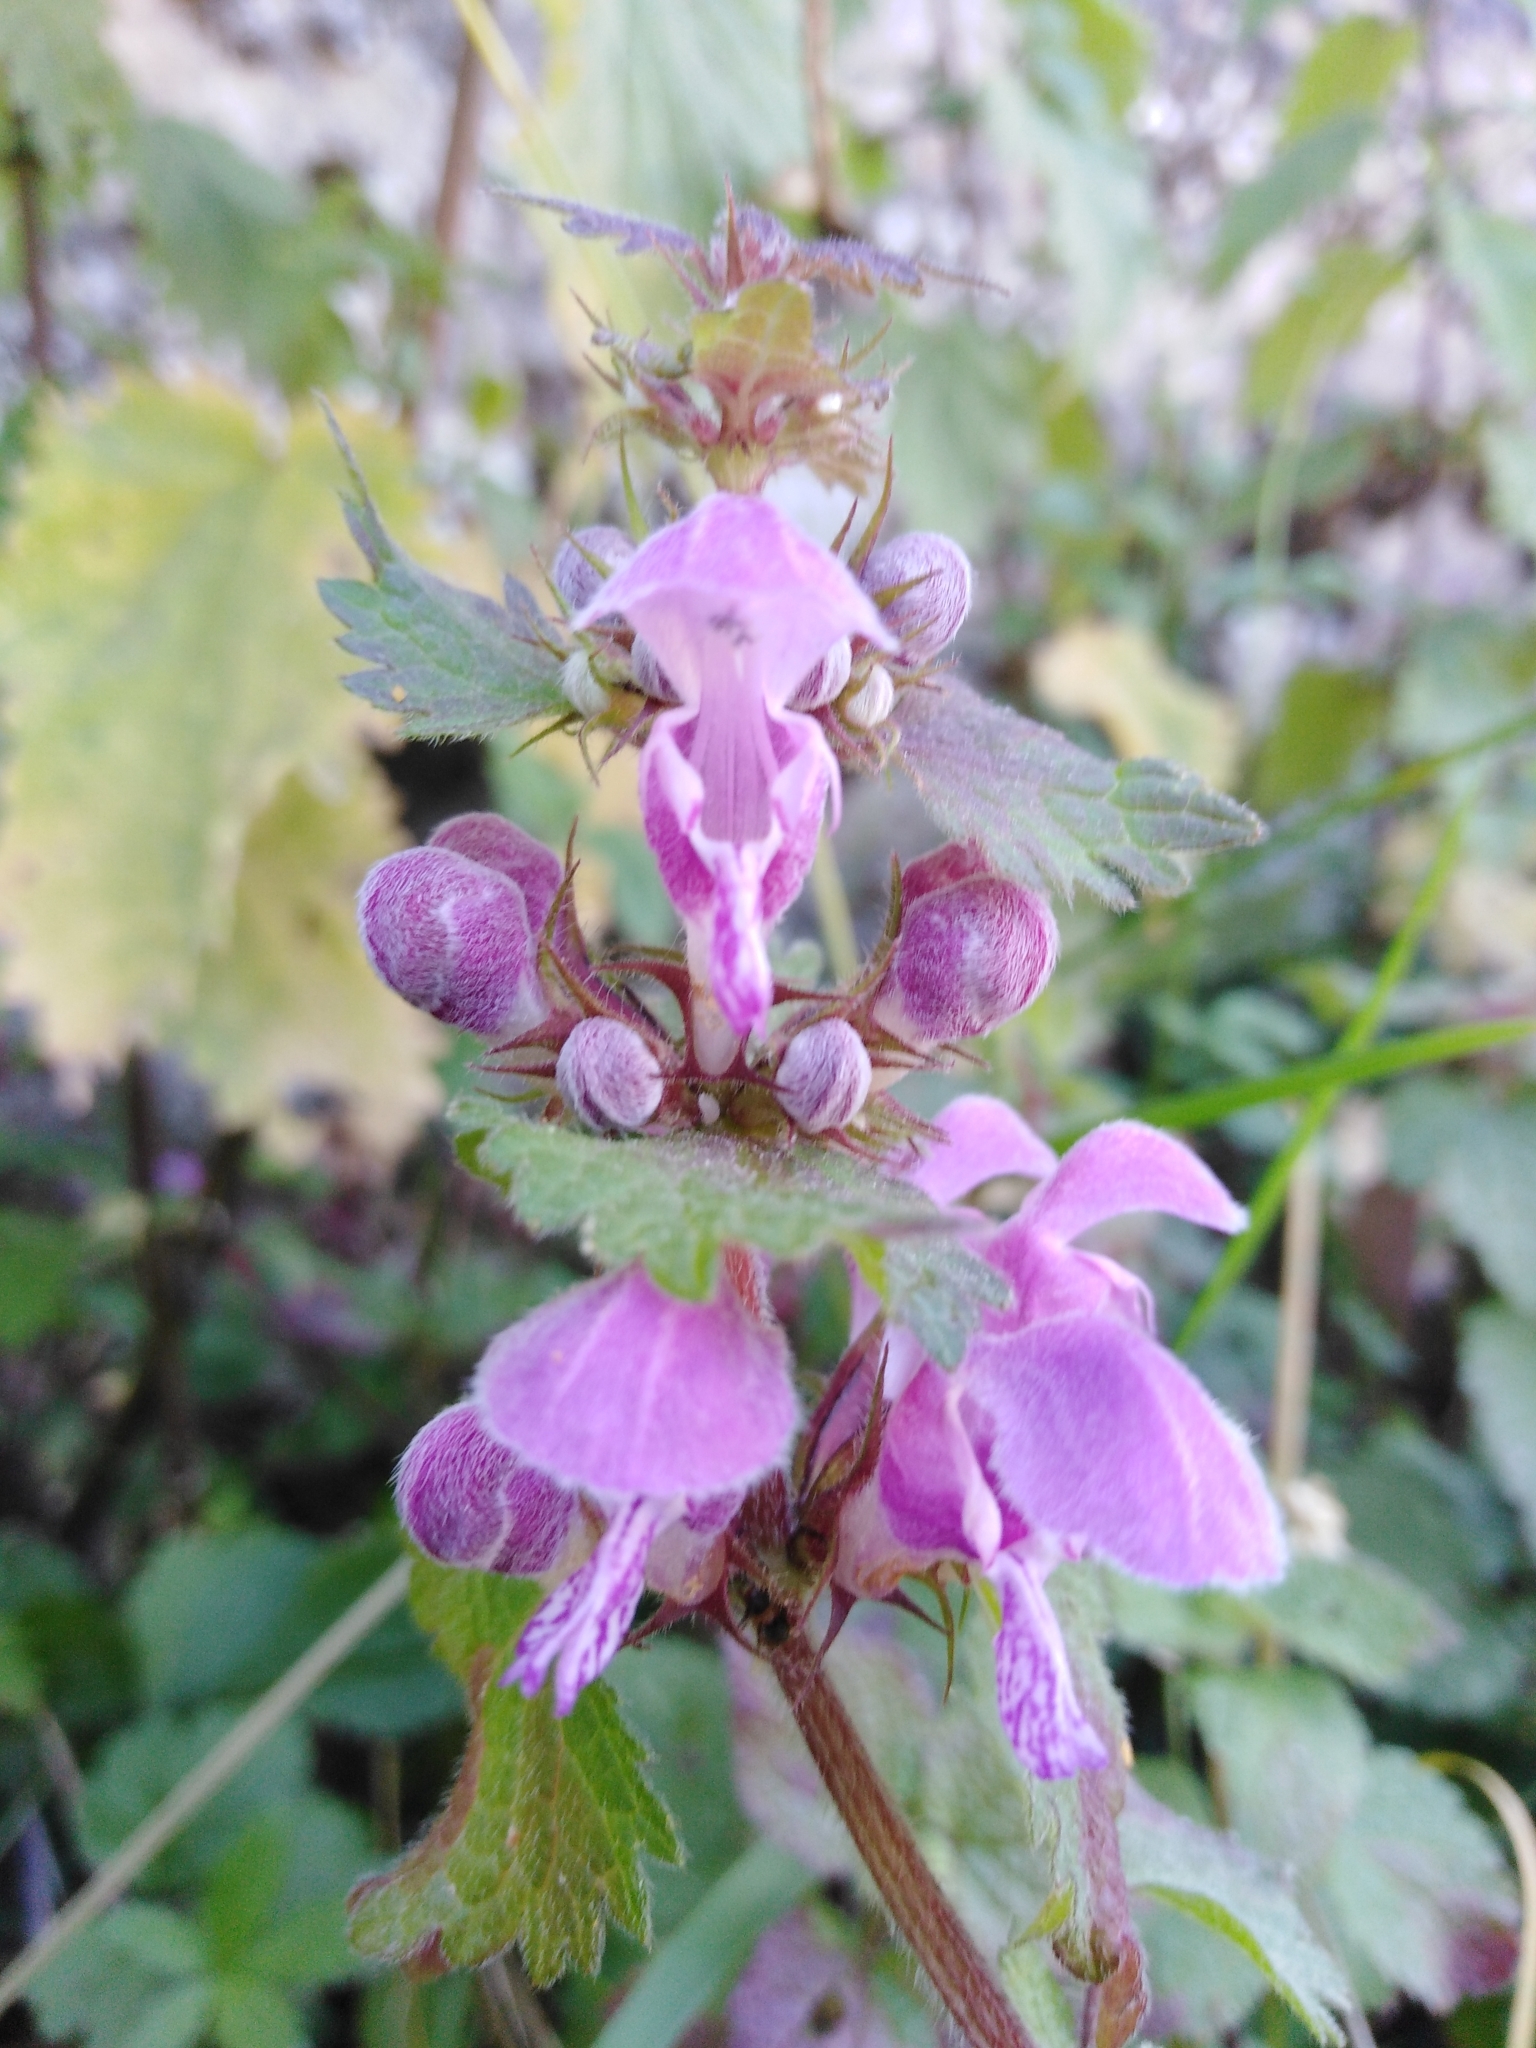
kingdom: Plantae
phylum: Tracheophyta
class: Magnoliopsida
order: Lamiales
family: Lamiaceae
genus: Lamium
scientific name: Lamium maculatum
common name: Spotted dead-nettle
